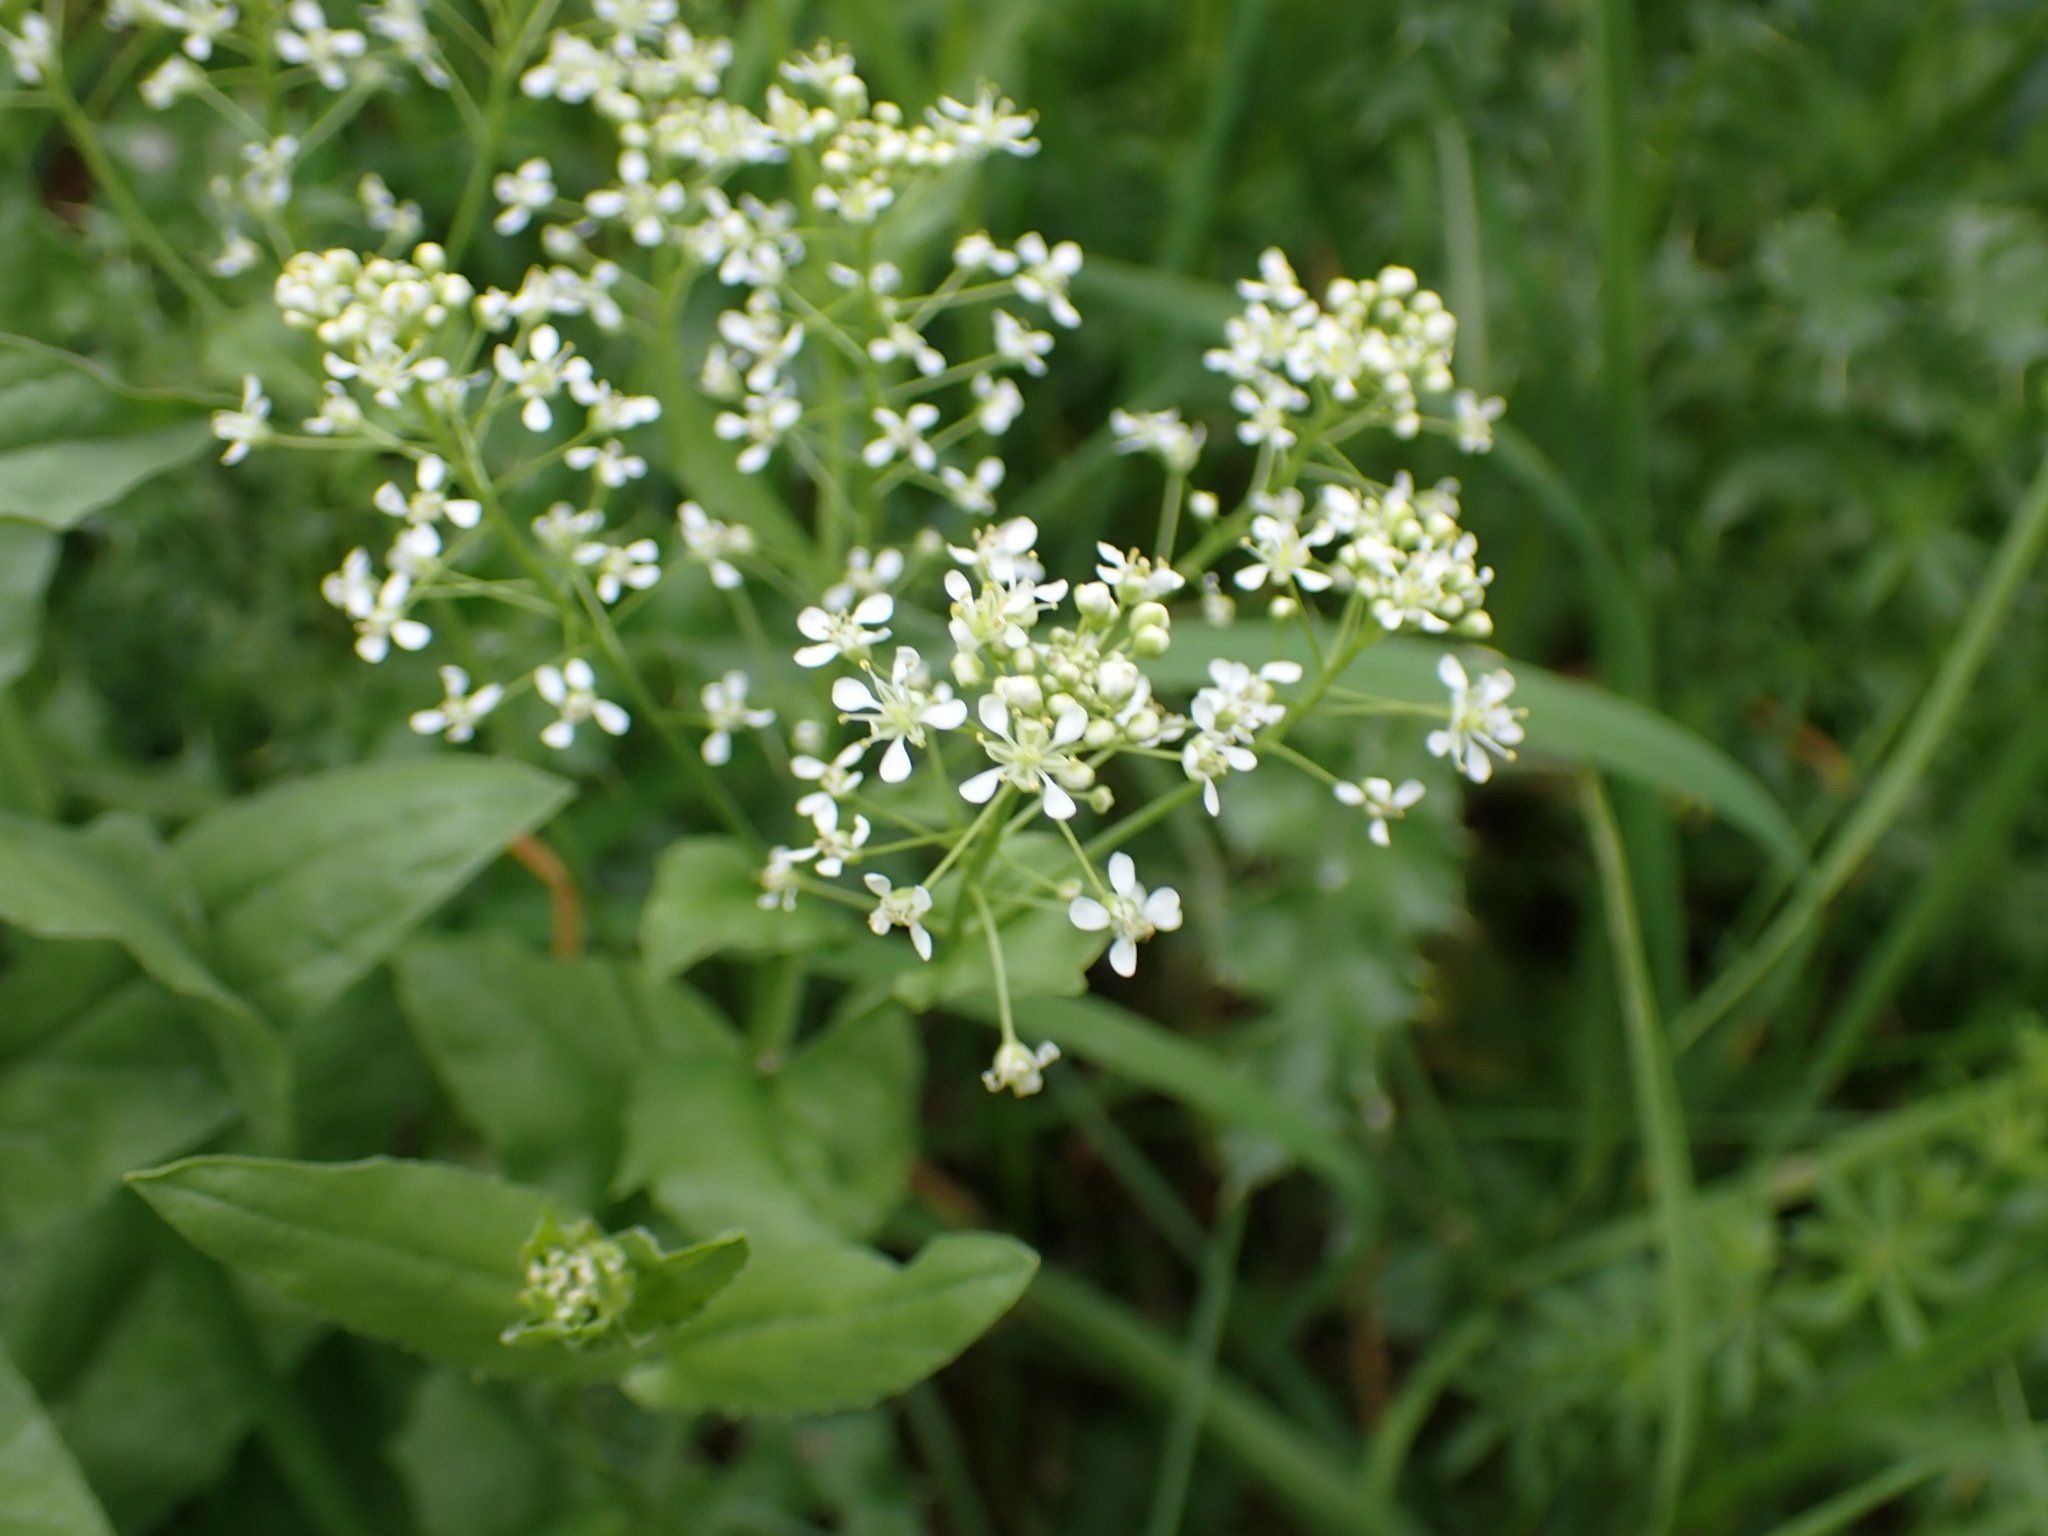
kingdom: Plantae
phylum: Tracheophyta
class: Magnoliopsida
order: Brassicales
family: Brassicaceae
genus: Lepidium
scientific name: Lepidium draba
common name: Hoary cress
